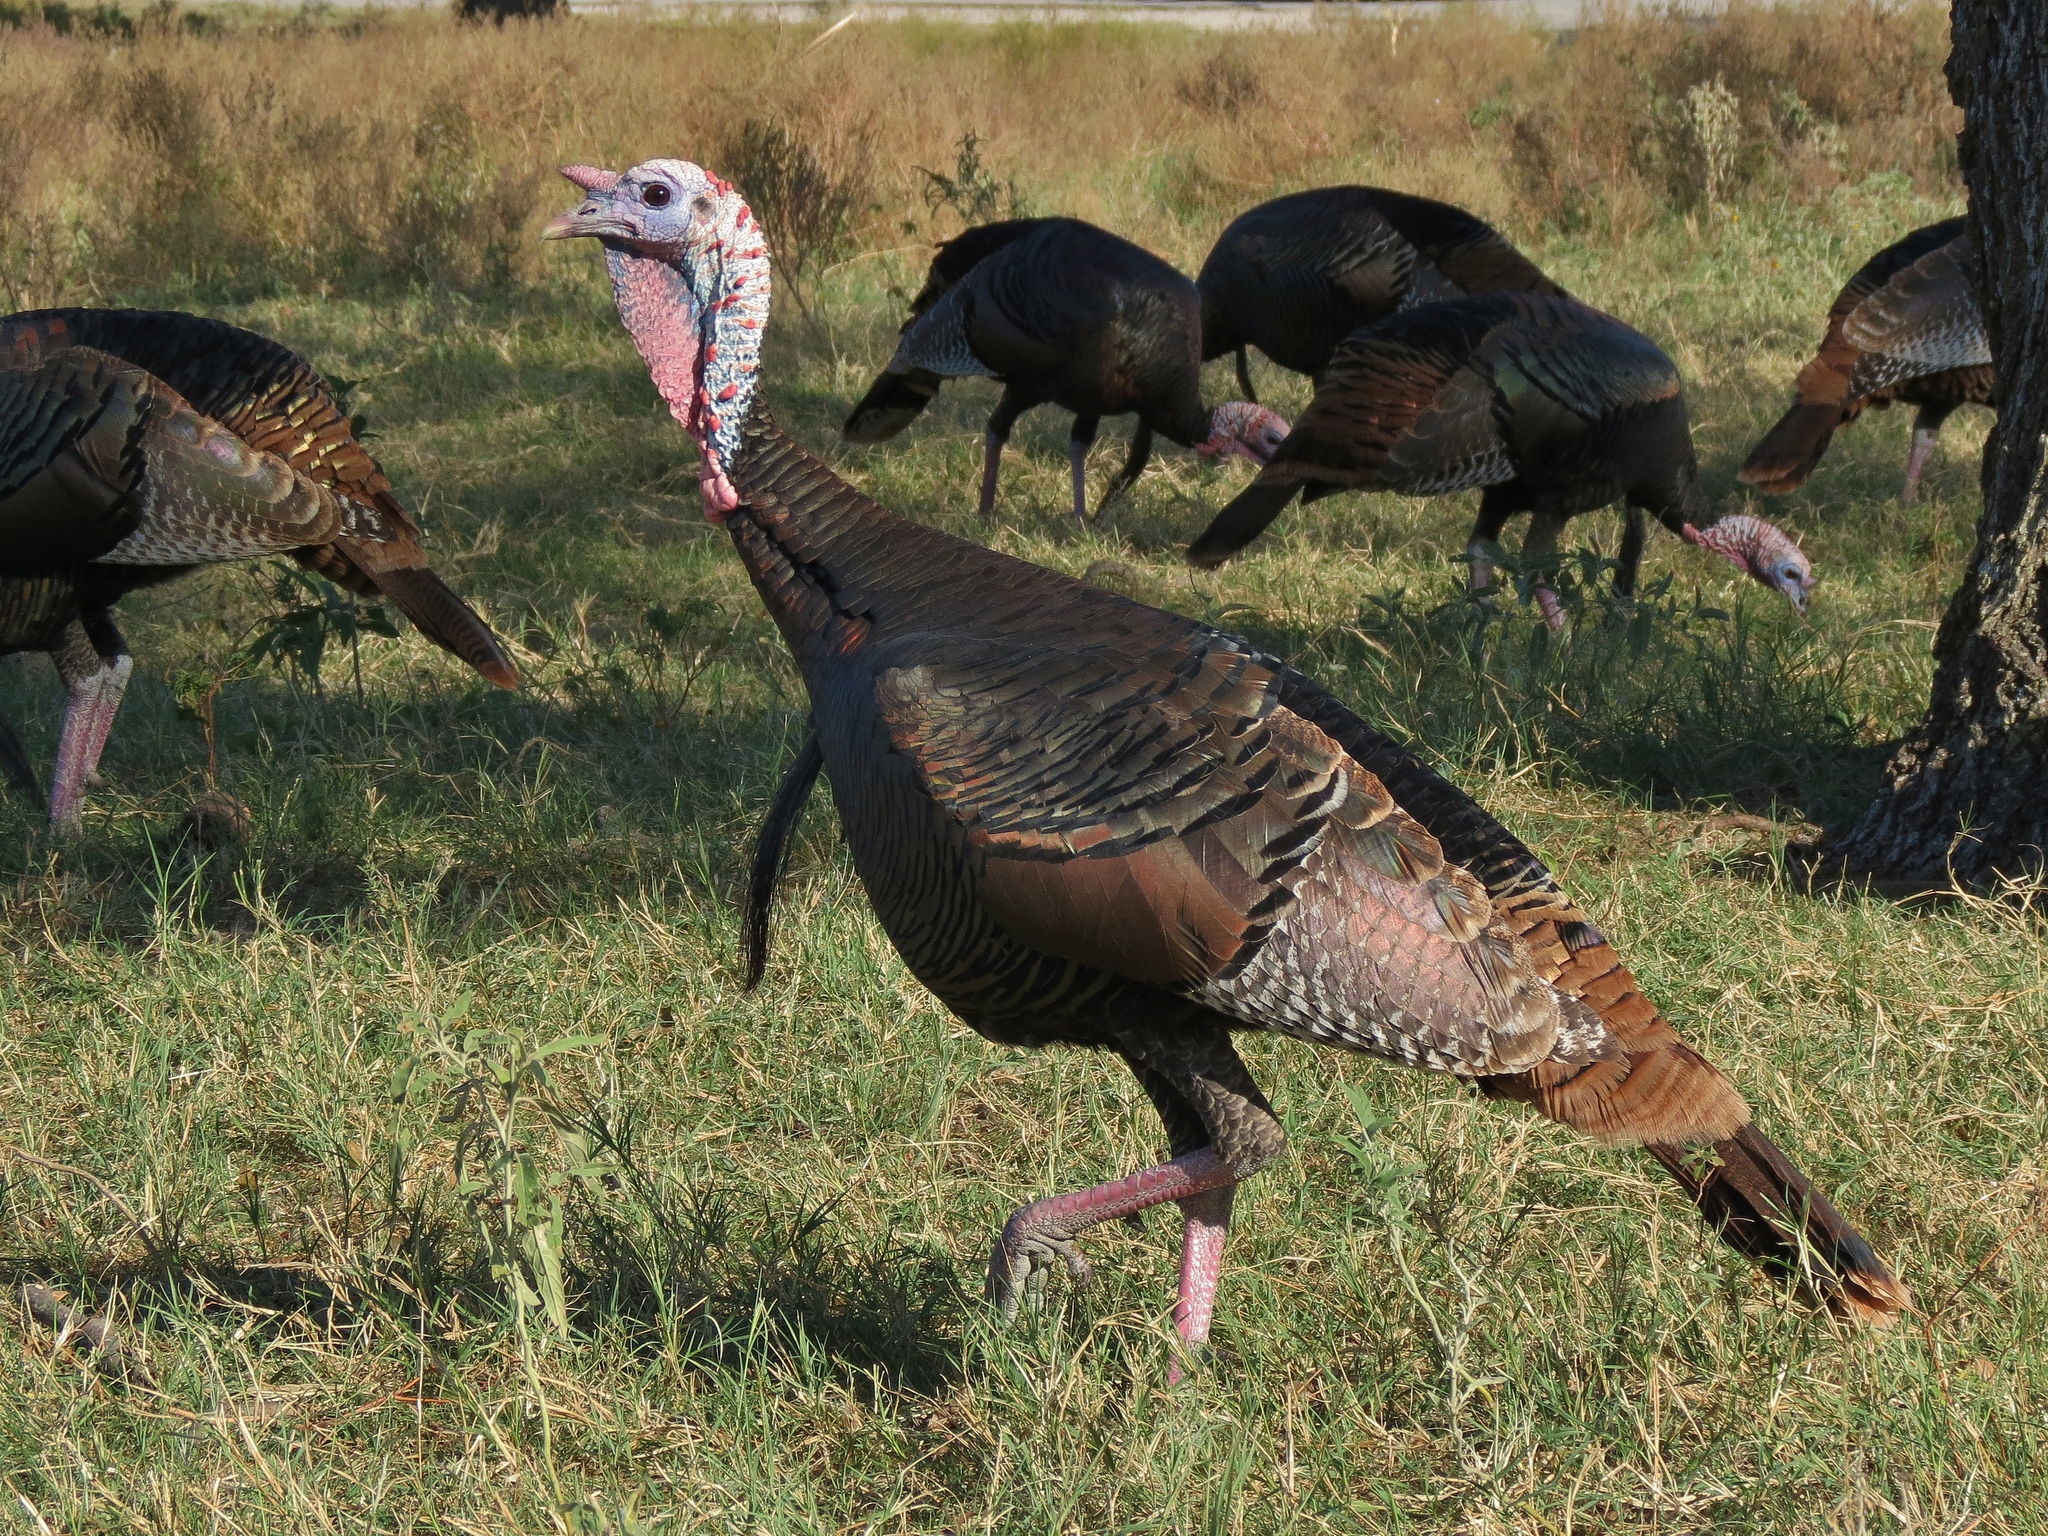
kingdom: Animalia
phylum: Chordata
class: Aves
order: Galliformes
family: Phasianidae
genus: Meleagris
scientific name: Meleagris gallopavo
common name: Wild turkey
